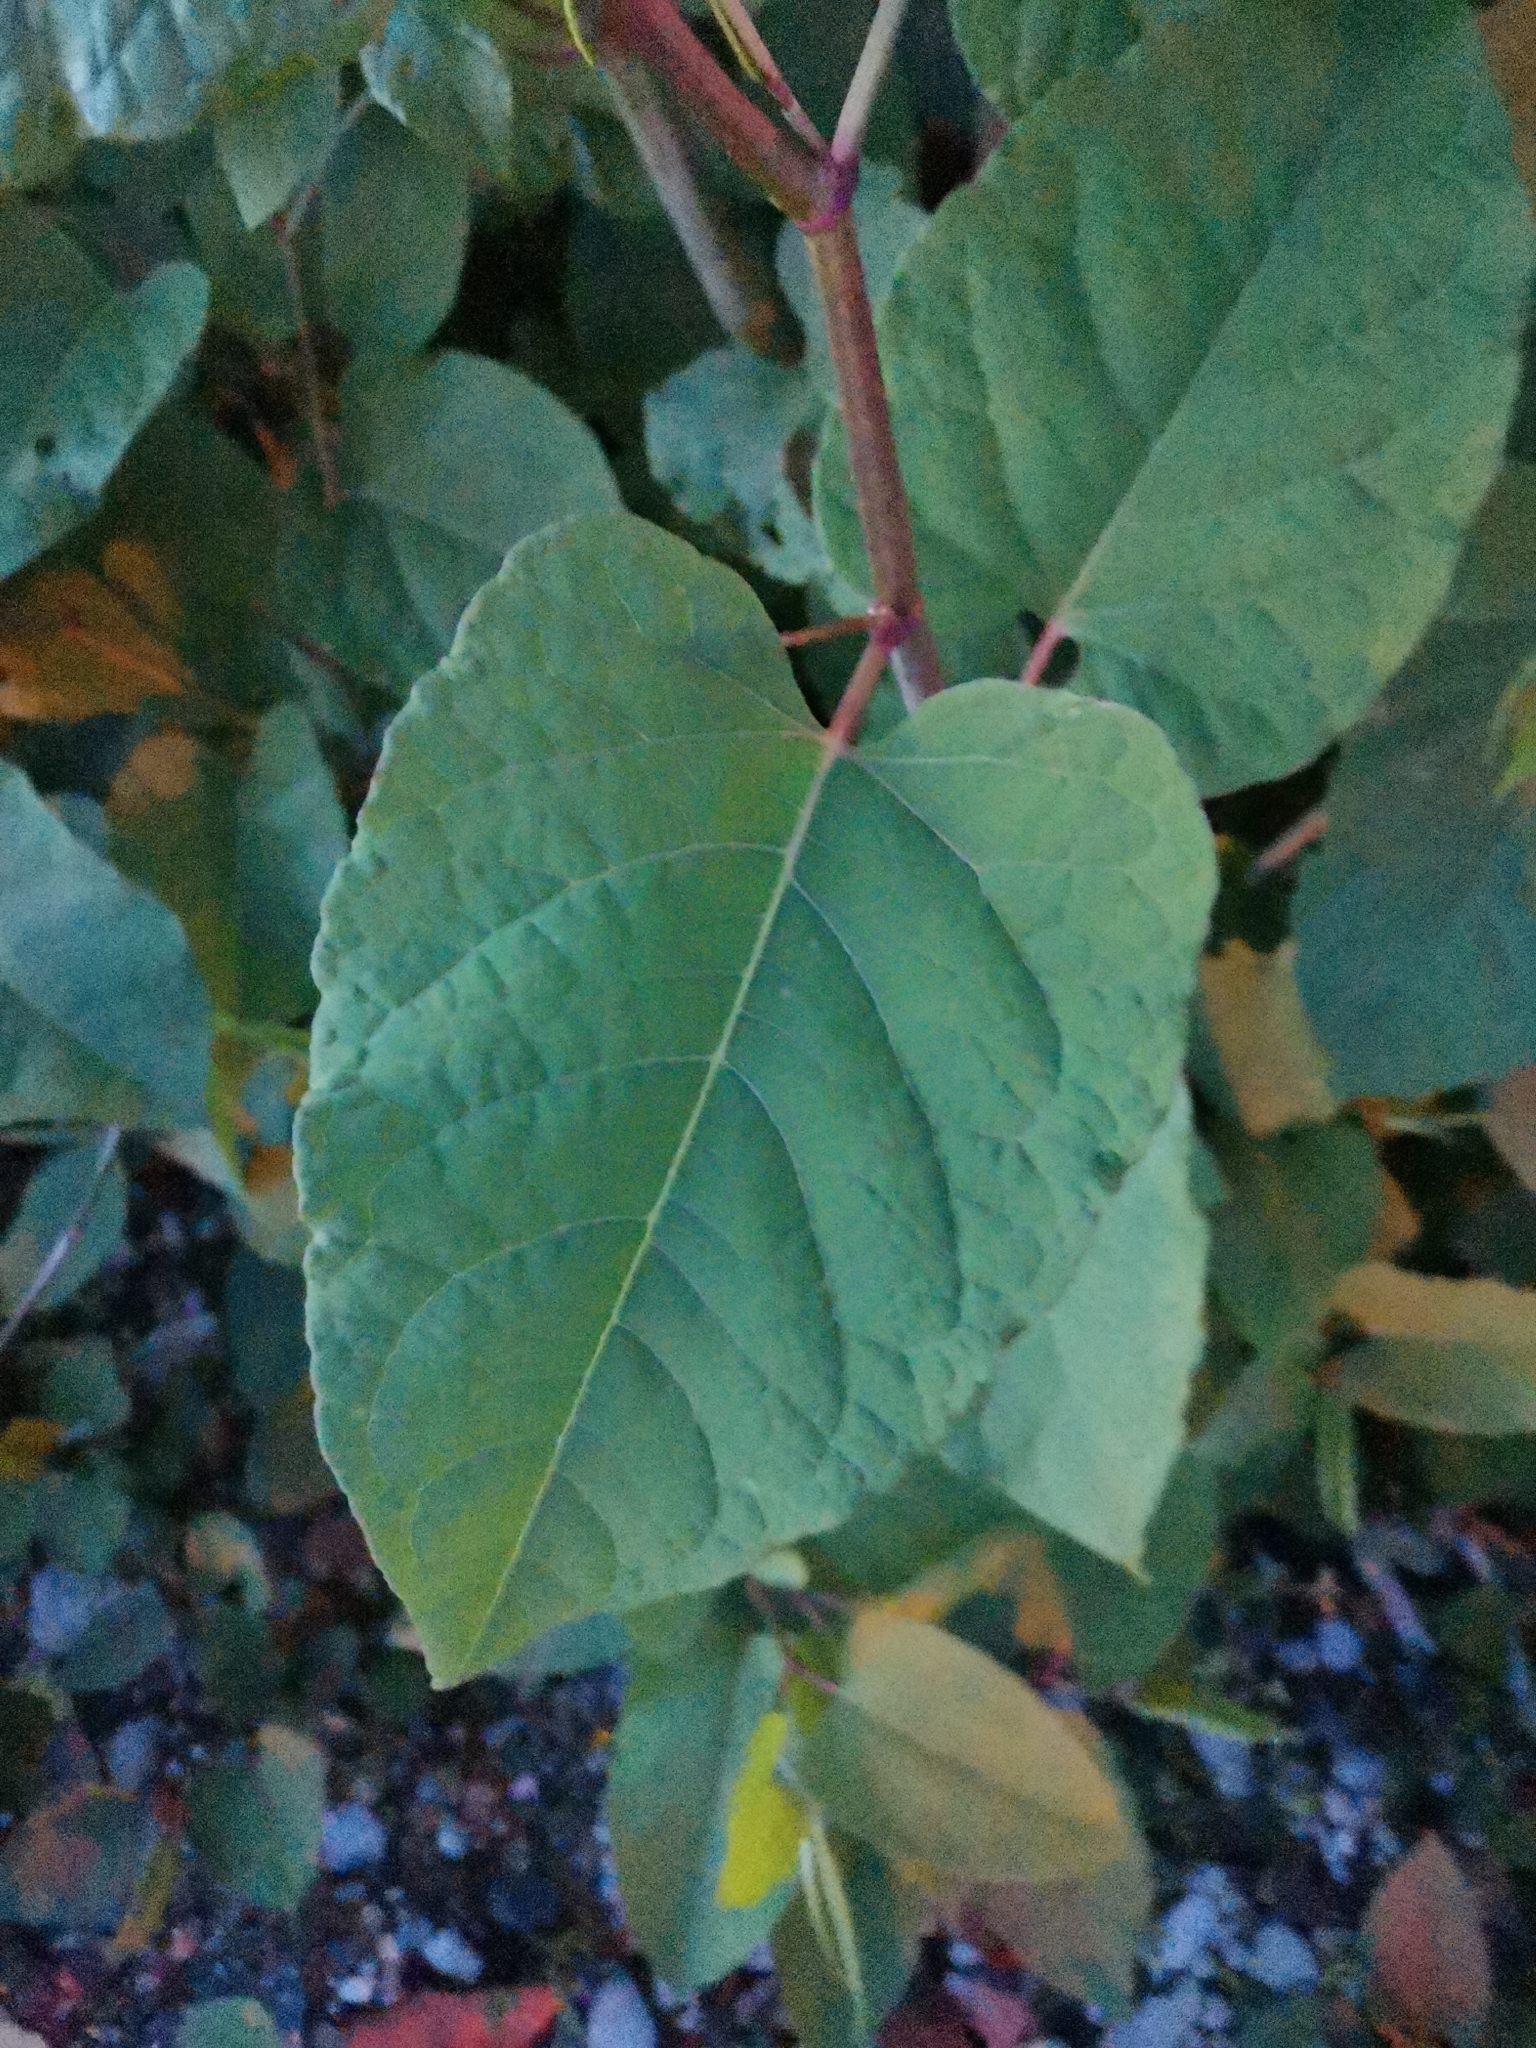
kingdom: Plantae
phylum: Tracheophyta
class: Magnoliopsida
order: Caryophyllales
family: Polygonaceae
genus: Reynoutria
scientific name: Reynoutria bohemica
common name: Bohemian knotweed
